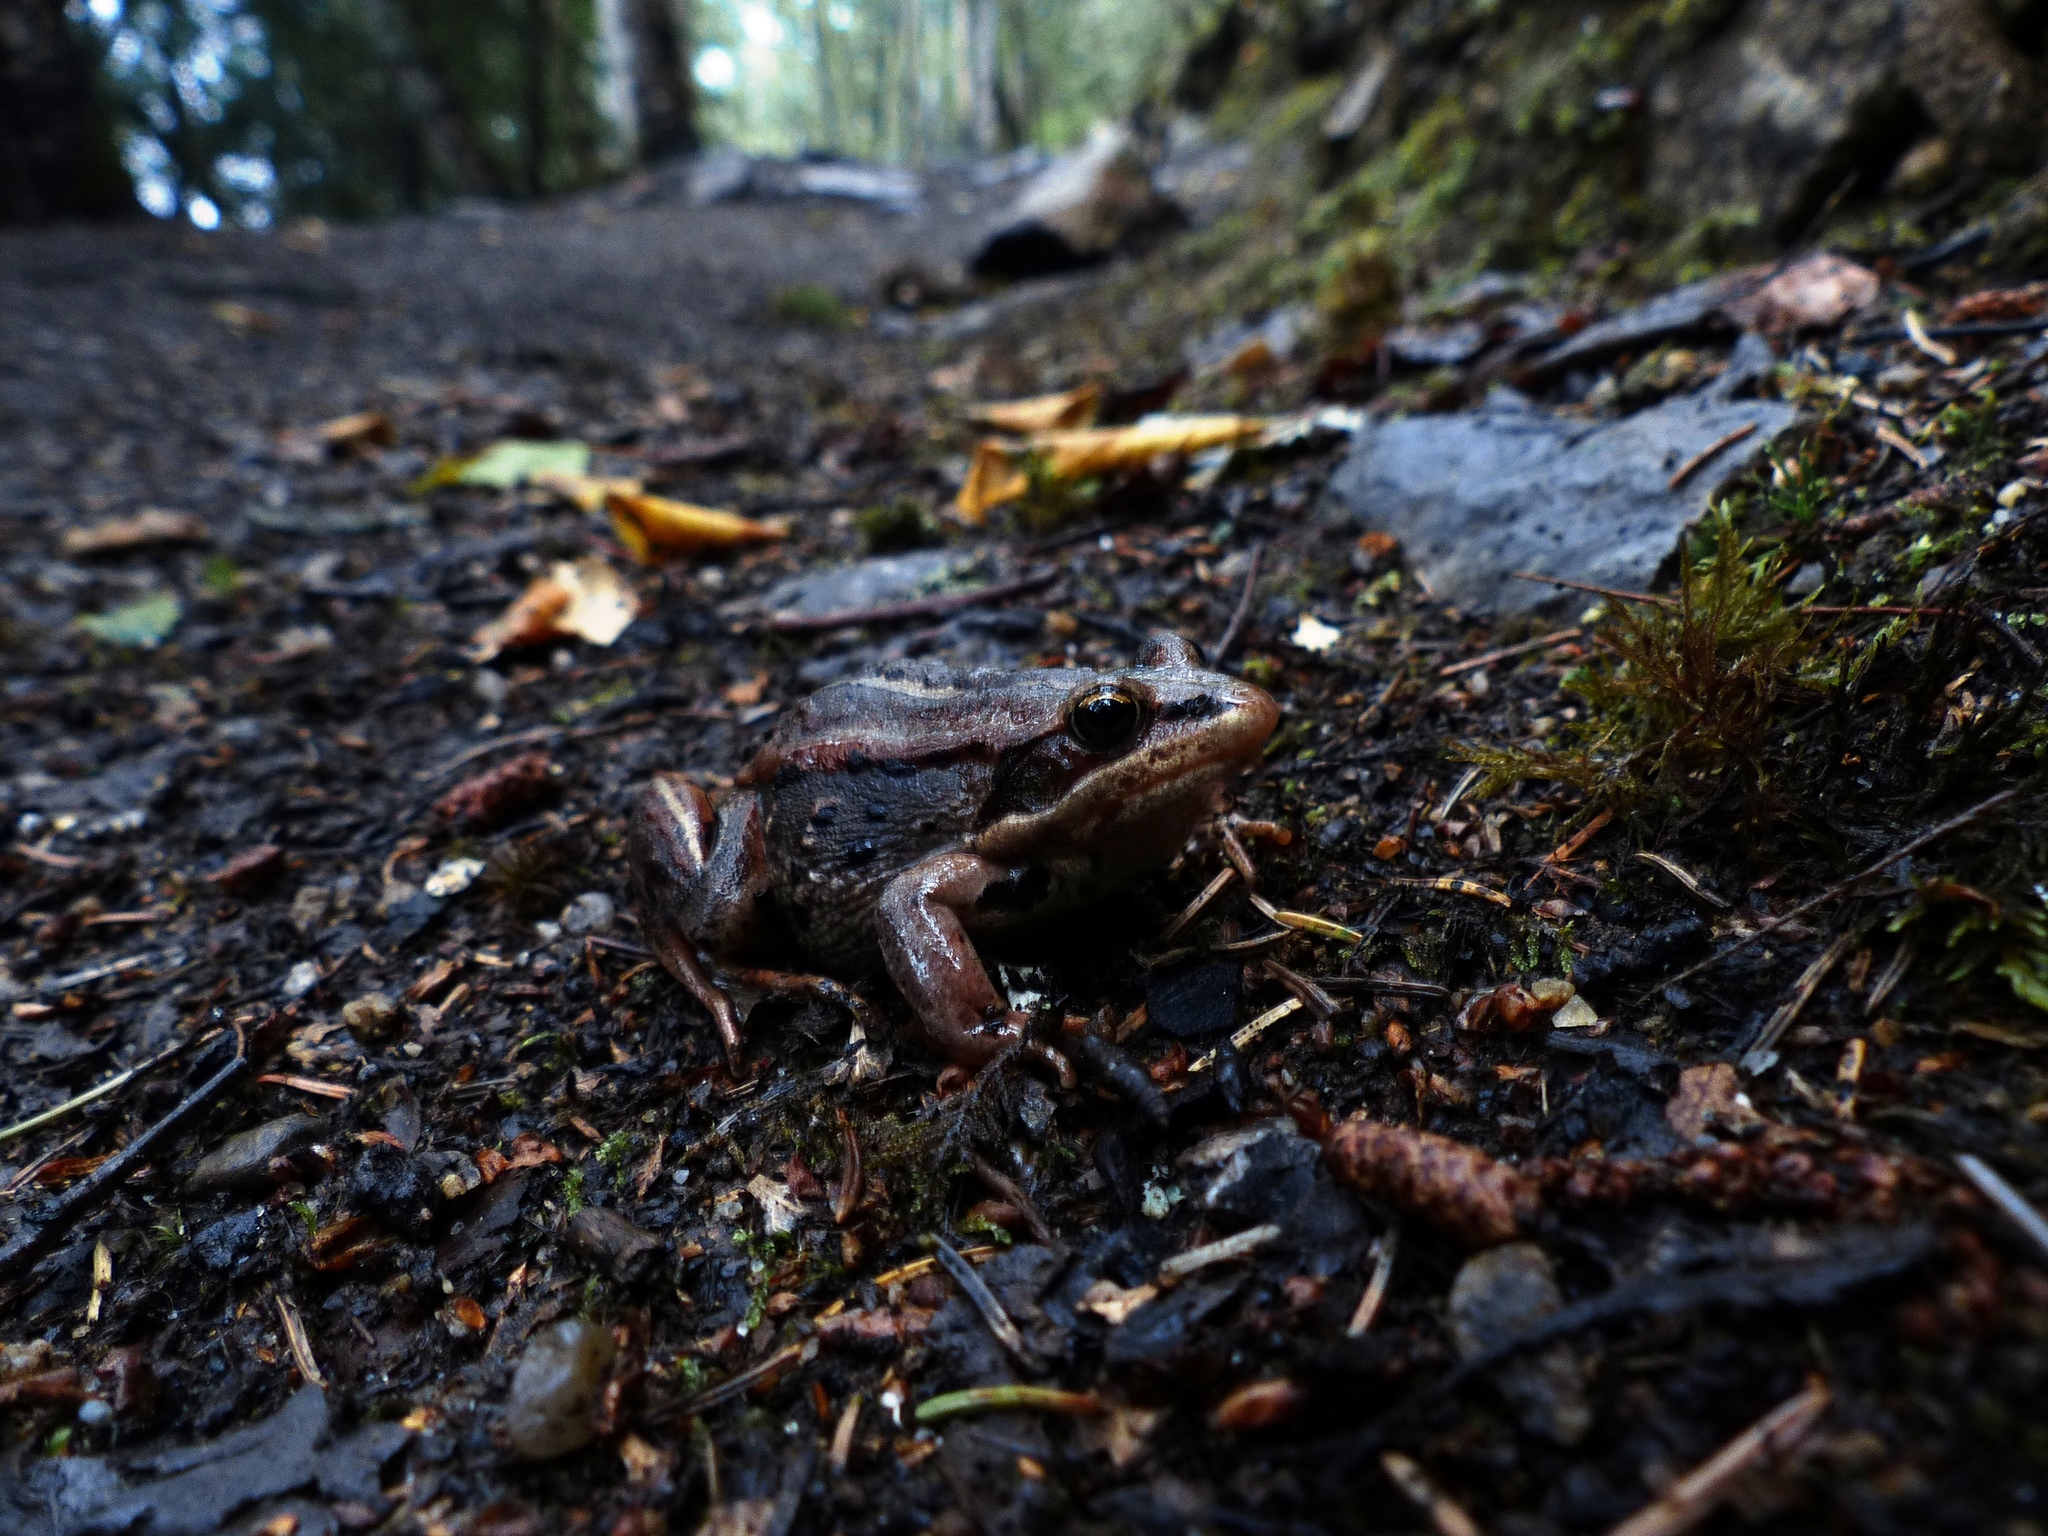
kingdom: Animalia
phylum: Chordata
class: Amphibia
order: Anura
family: Ranidae
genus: Lithobates
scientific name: Lithobates sylvaticus
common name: Wood frog
